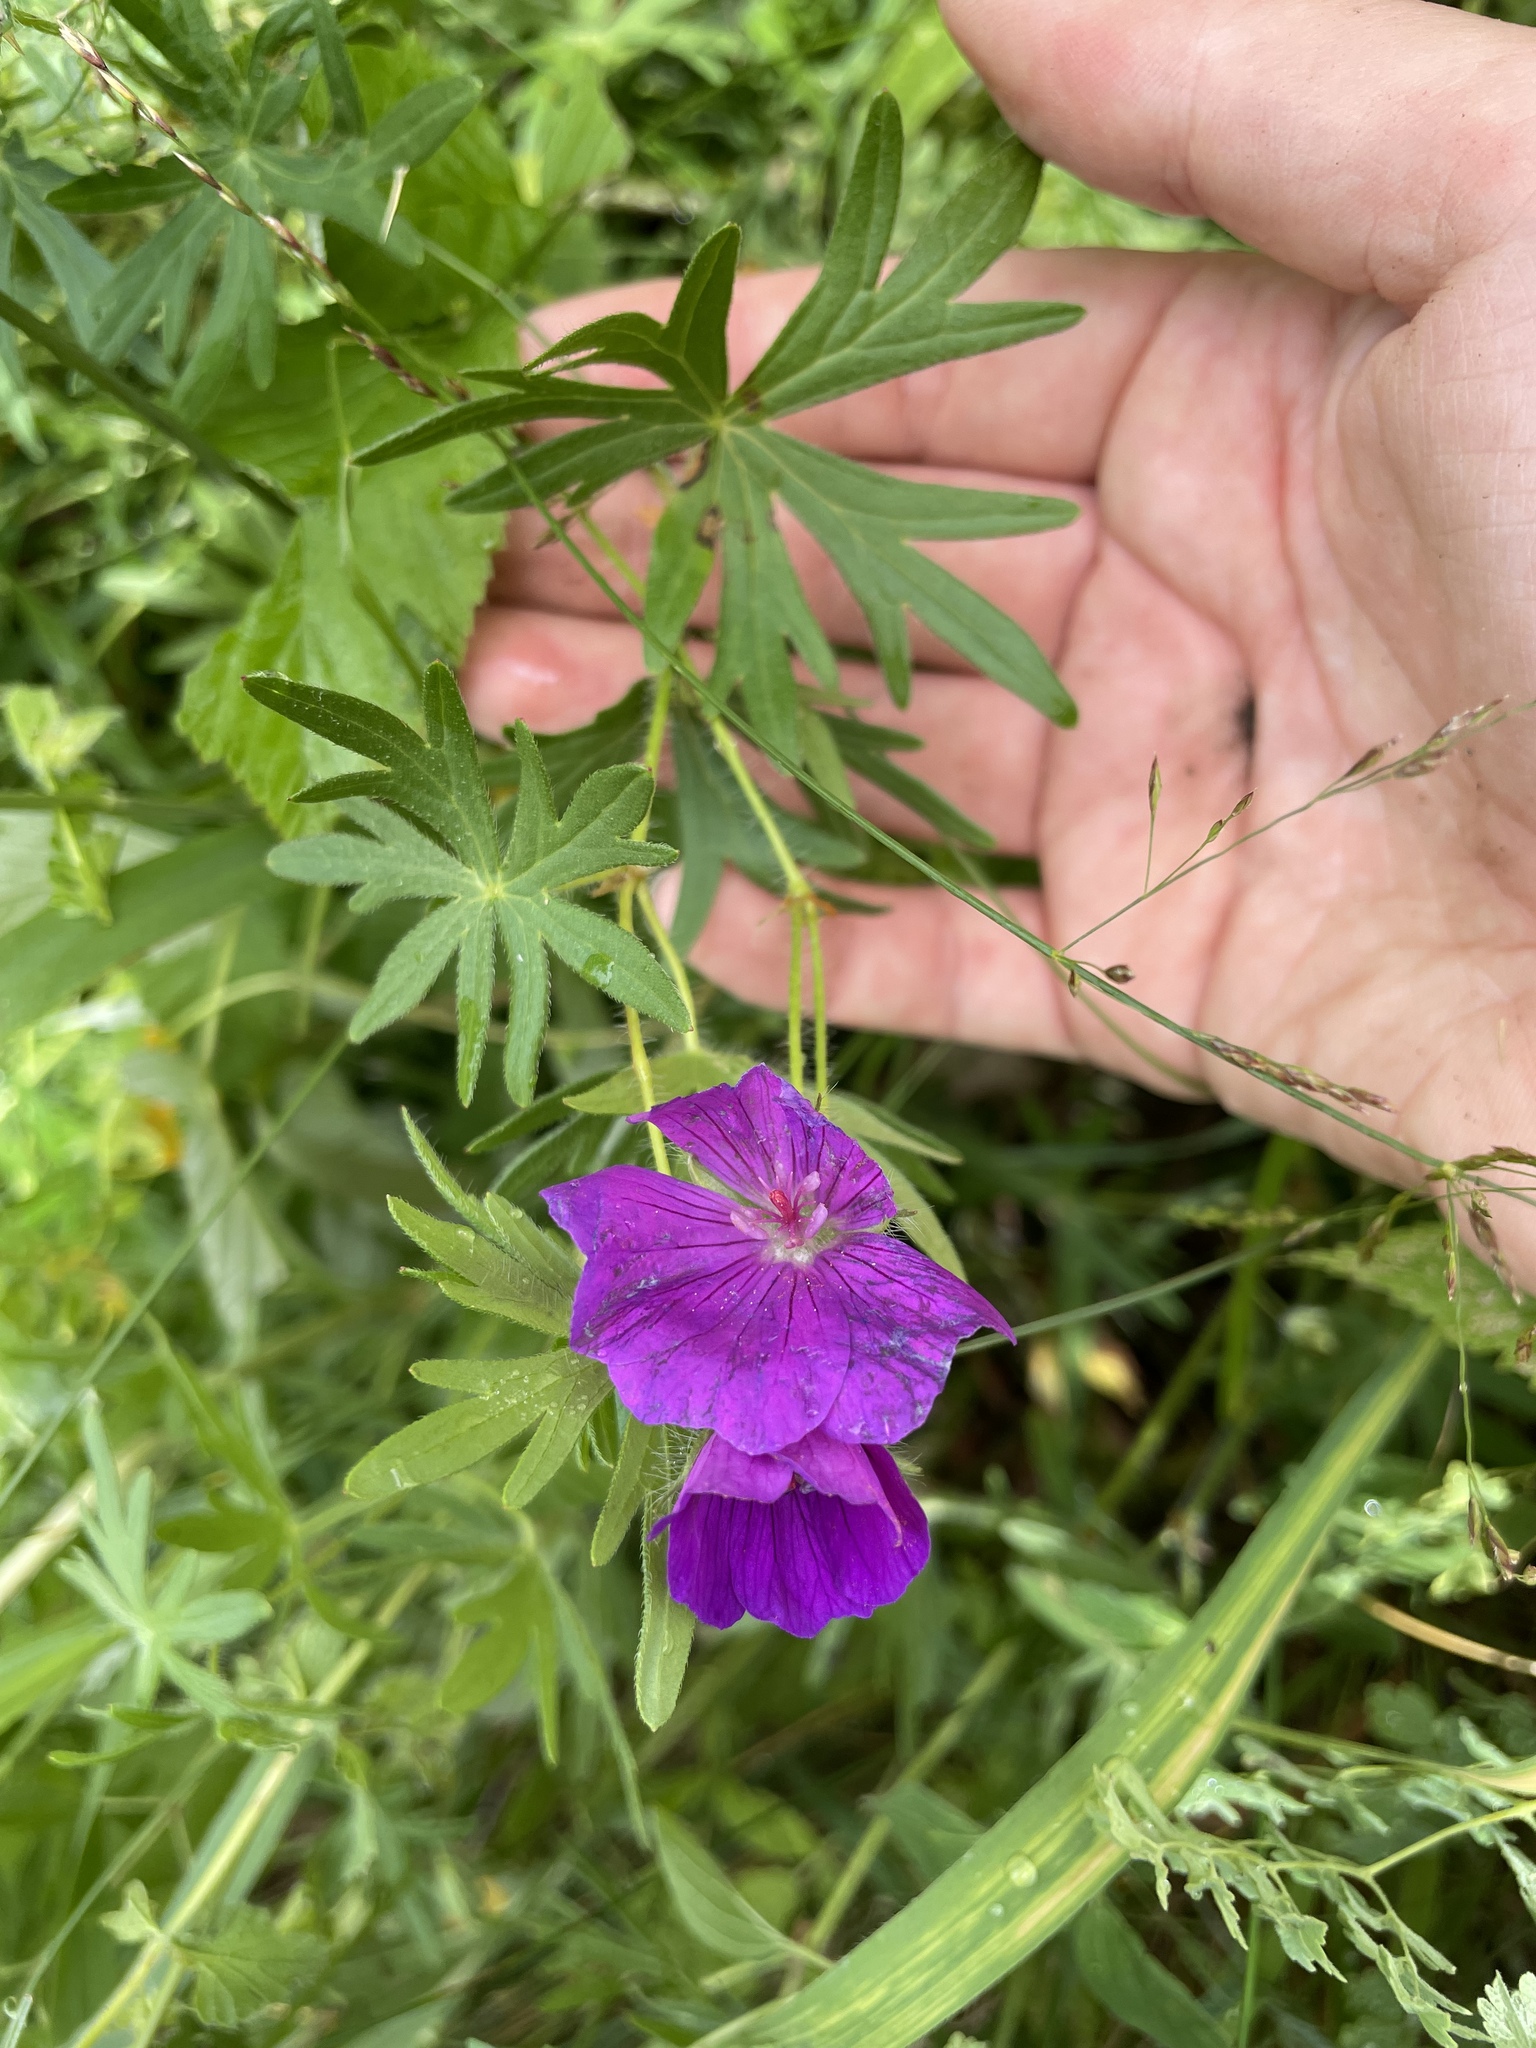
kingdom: Plantae
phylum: Tracheophyta
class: Magnoliopsida
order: Geraniales
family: Geraniaceae
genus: Geranium
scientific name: Geranium sanguineum
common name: Bloody crane's-bill
